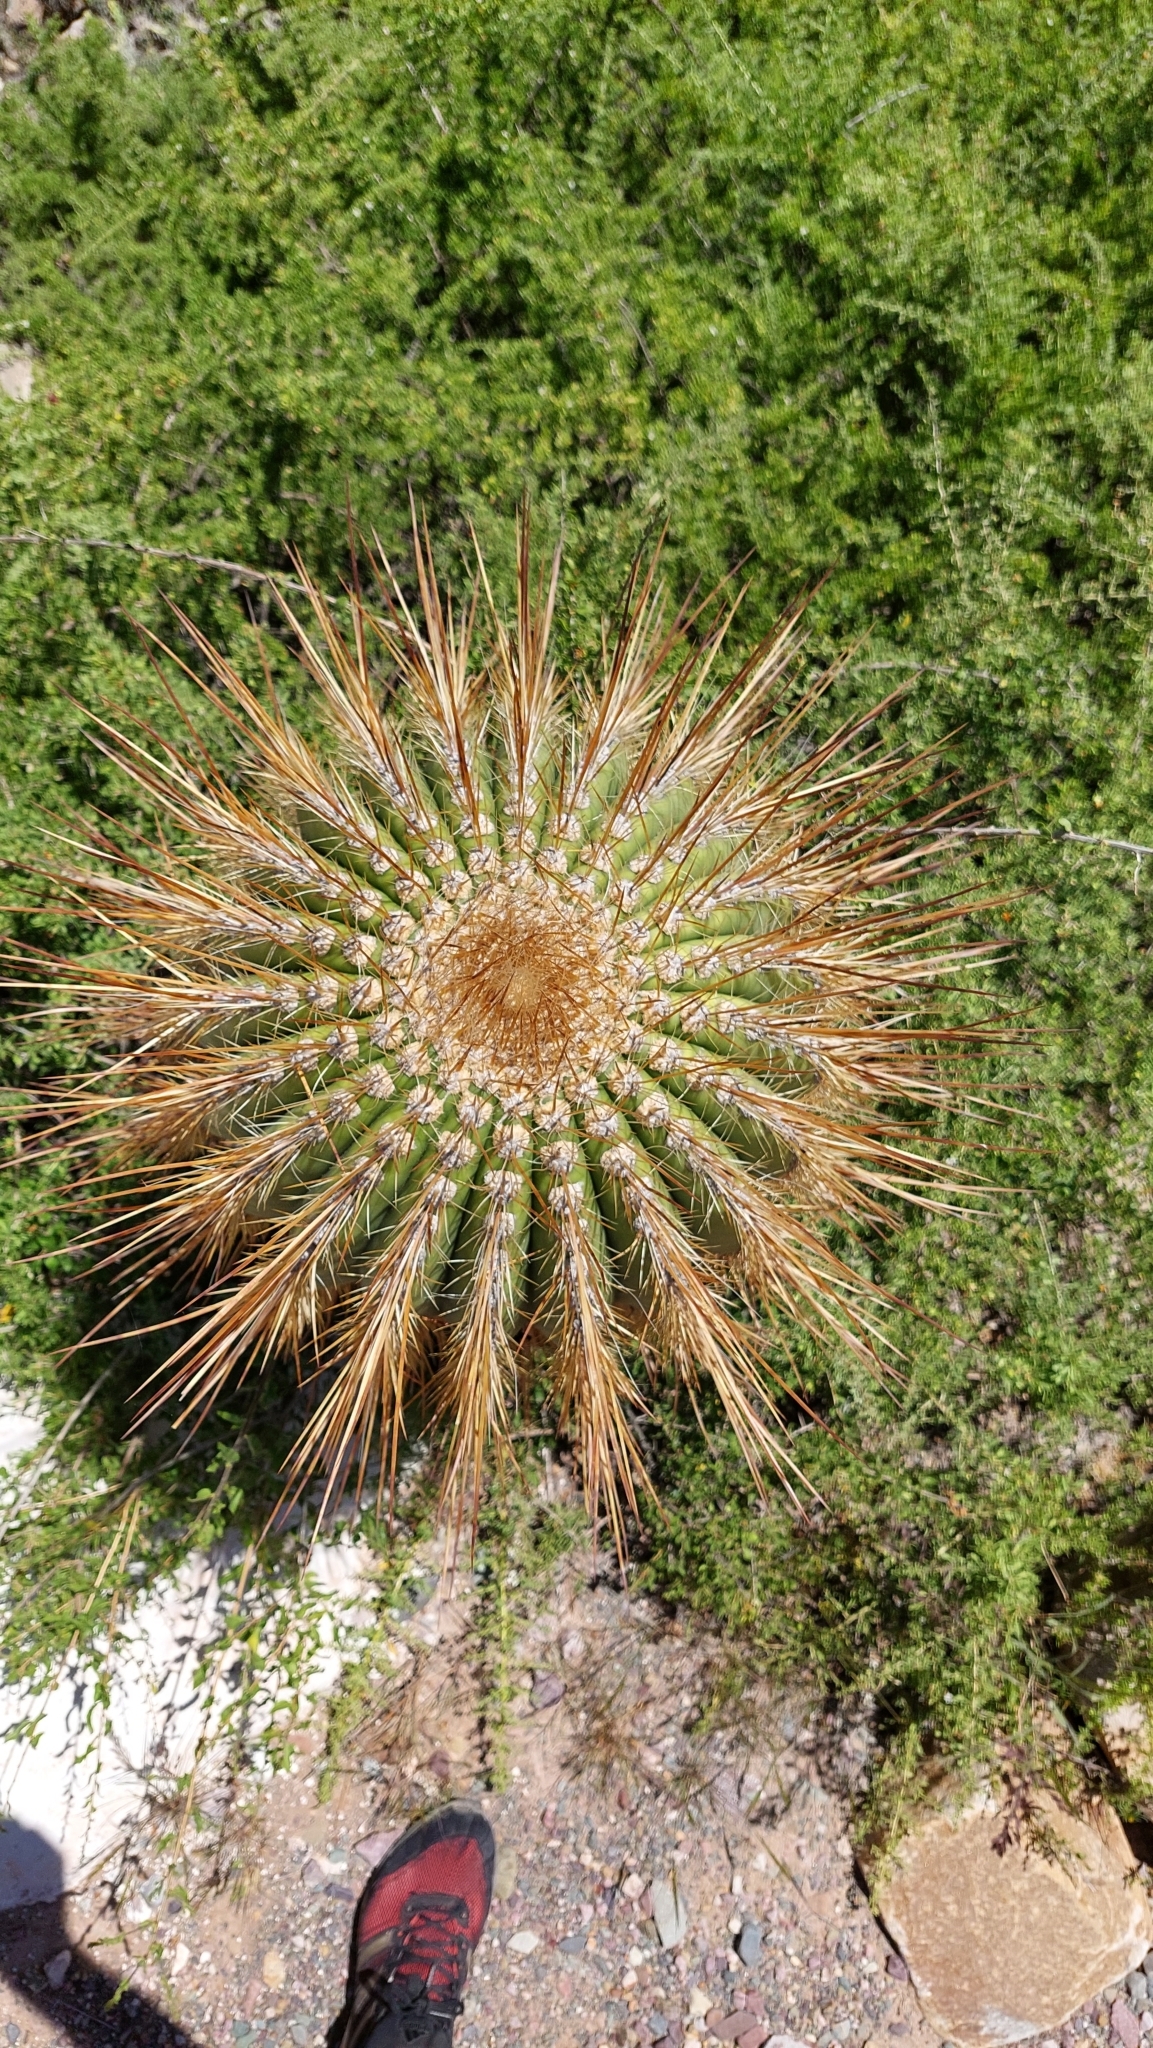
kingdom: Plantae
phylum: Tracheophyta
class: Magnoliopsida
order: Caryophyllales
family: Cactaceae
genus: Leucostele
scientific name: Leucostele atacamensis
